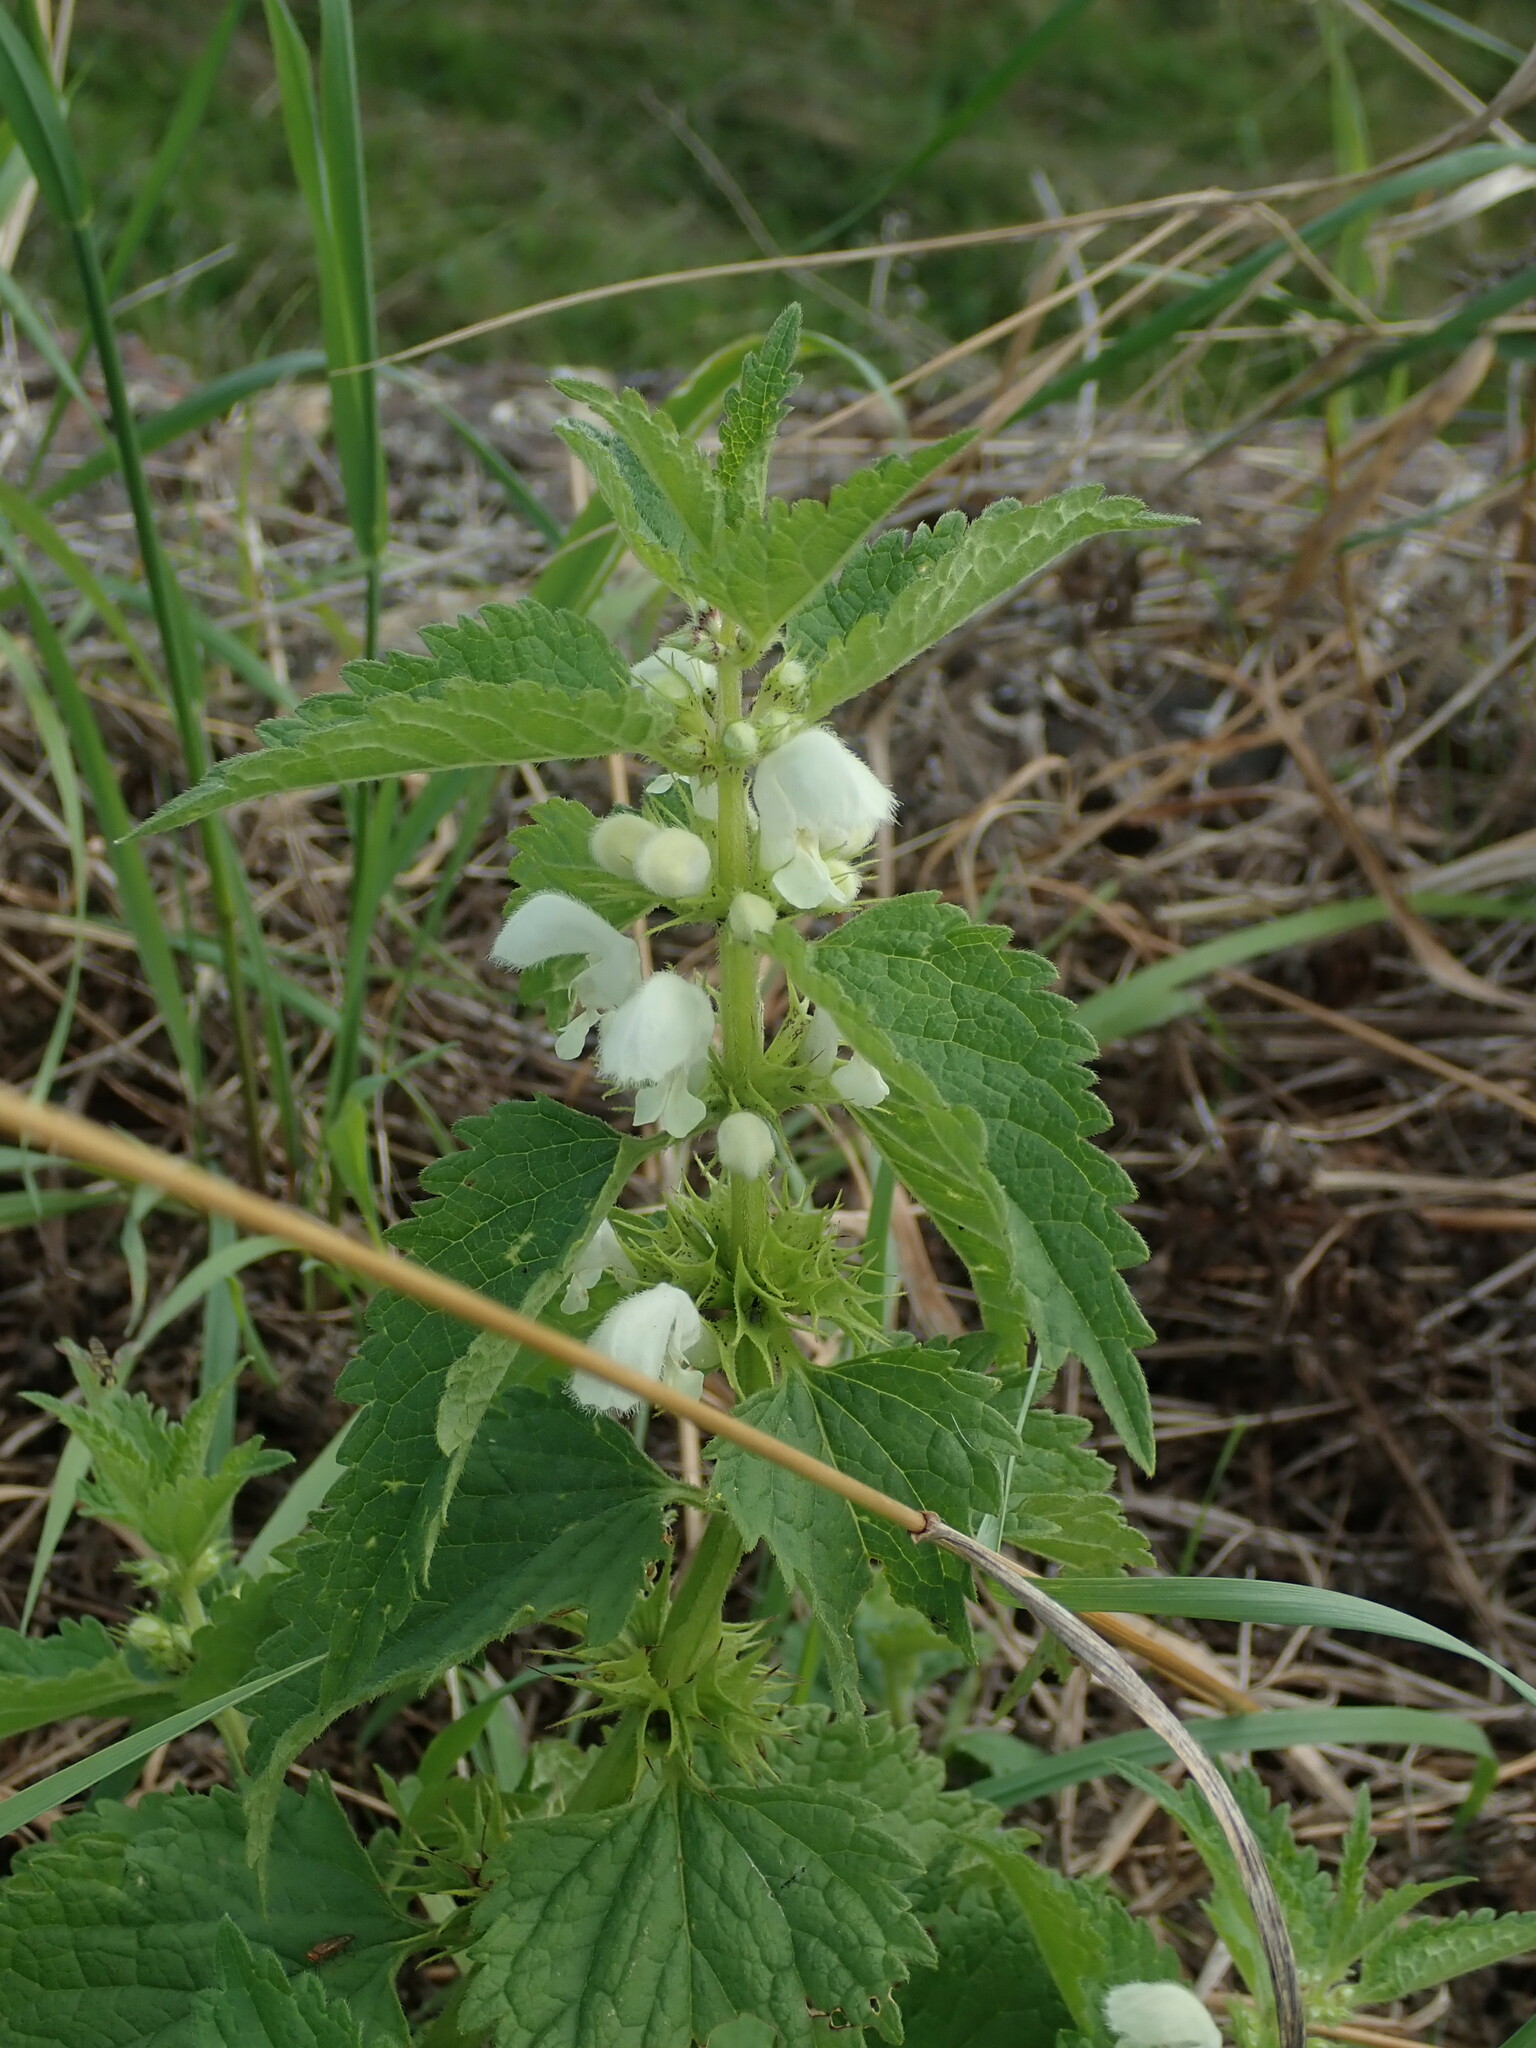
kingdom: Plantae
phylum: Tracheophyta
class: Magnoliopsida
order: Lamiales
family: Lamiaceae
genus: Lamium
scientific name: Lamium album
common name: White dead-nettle
